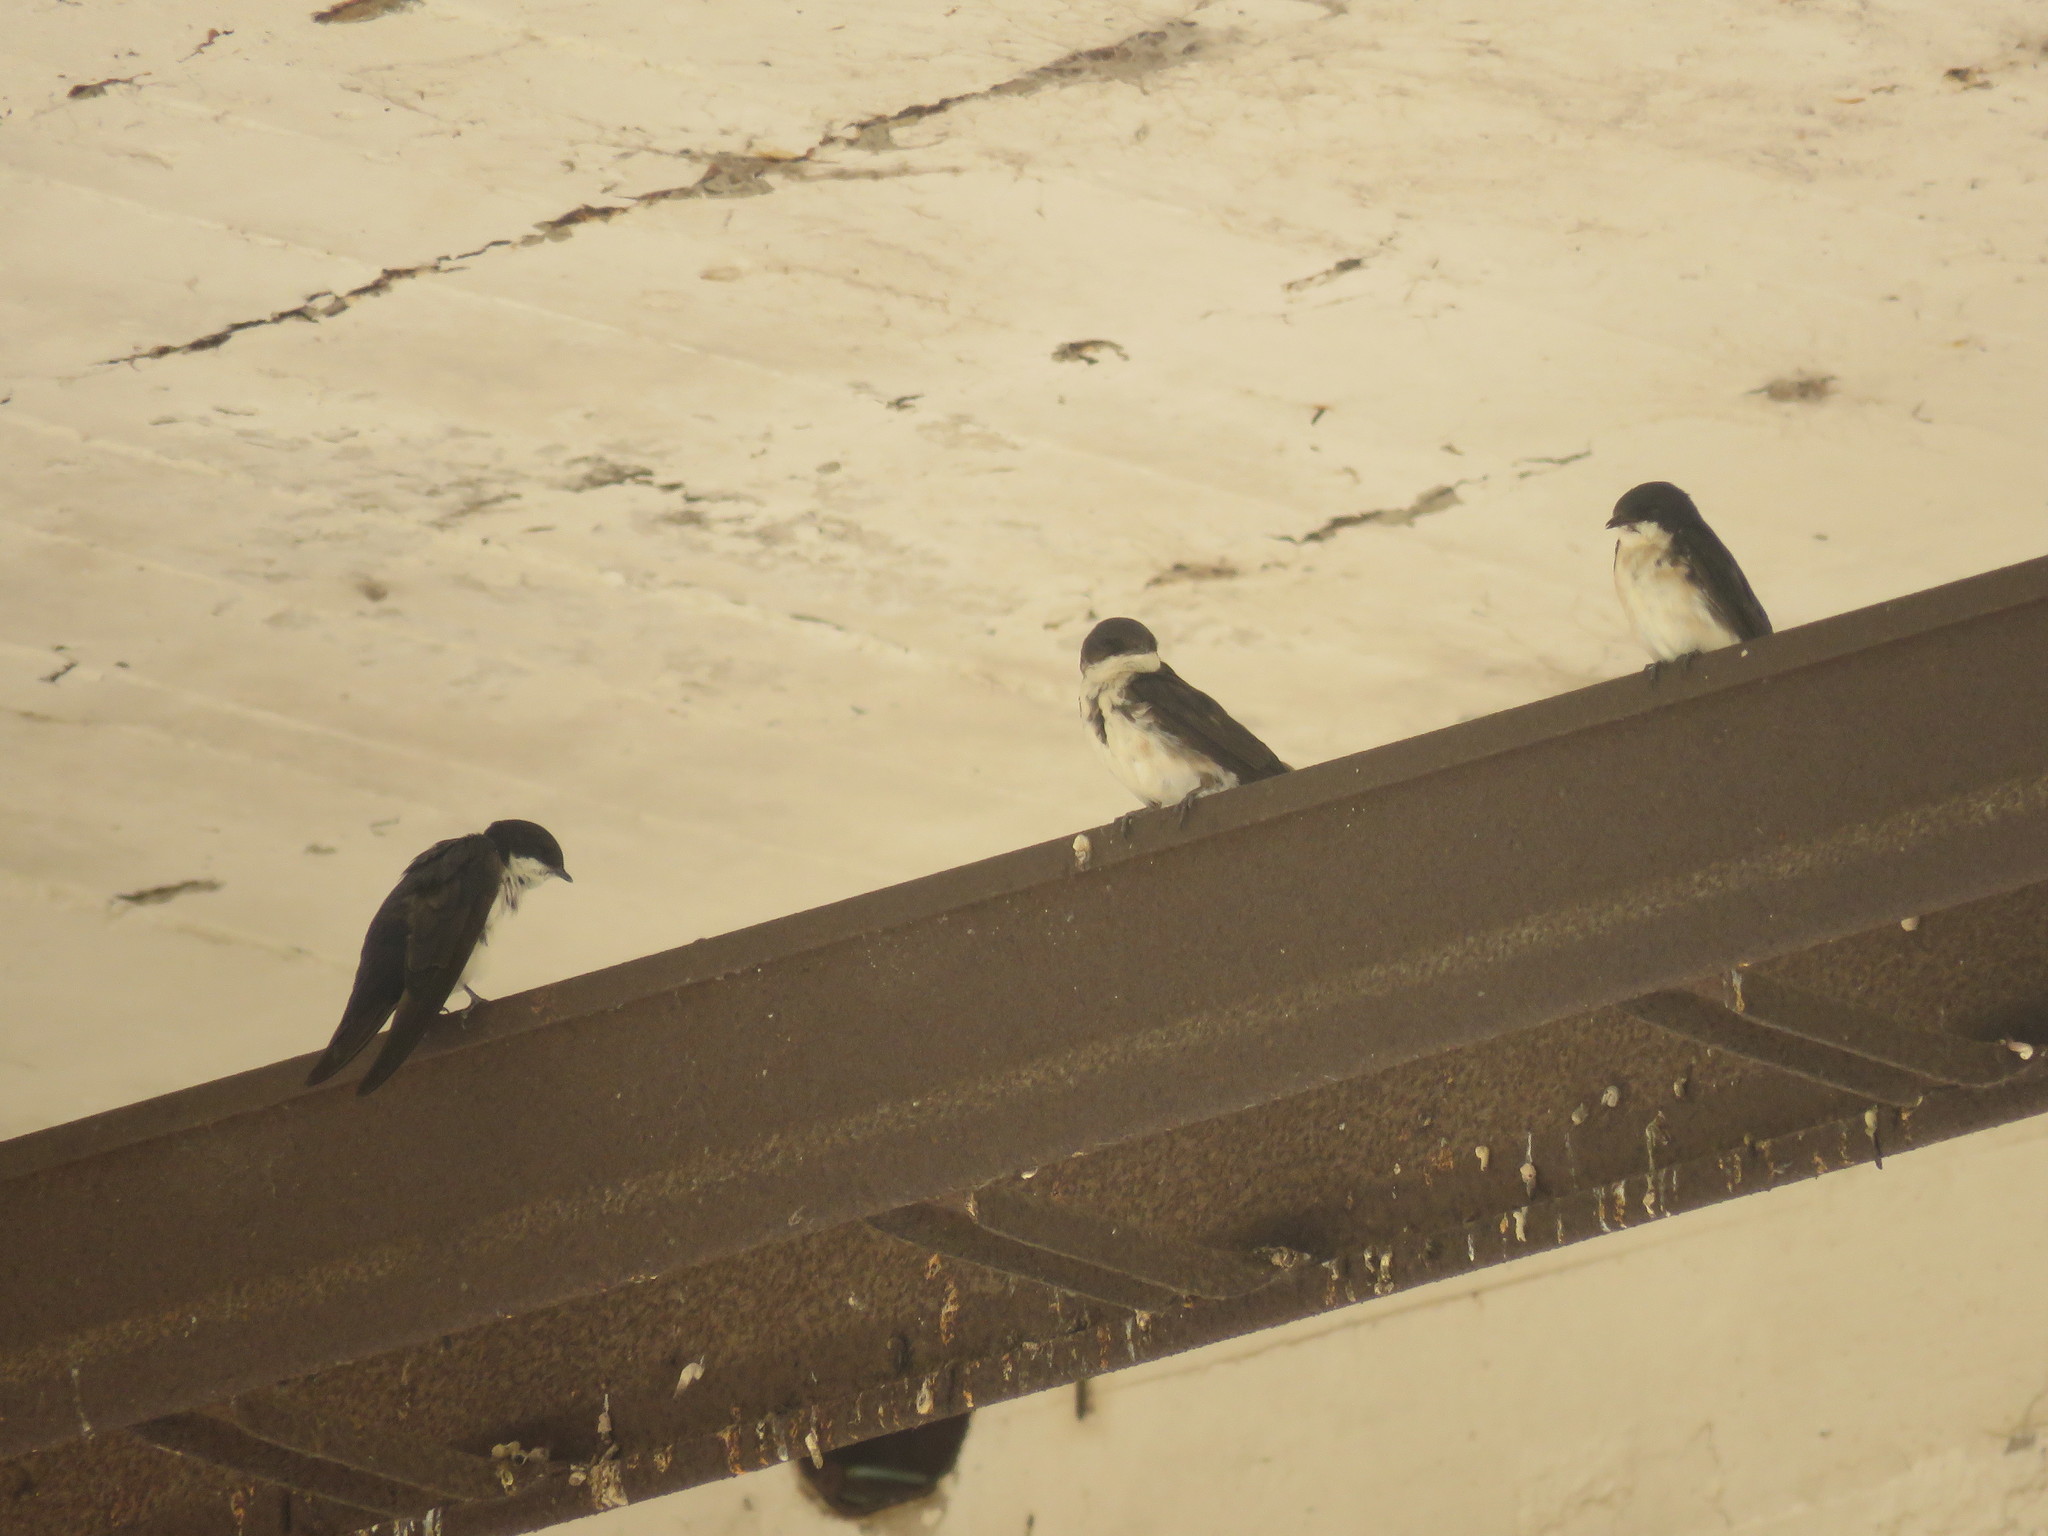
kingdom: Animalia
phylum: Chordata
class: Aves
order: Passeriformes
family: Hirundinidae
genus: Notiochelidon
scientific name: Notiochelidon cyanoleuca
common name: Blue-and-white swallow
